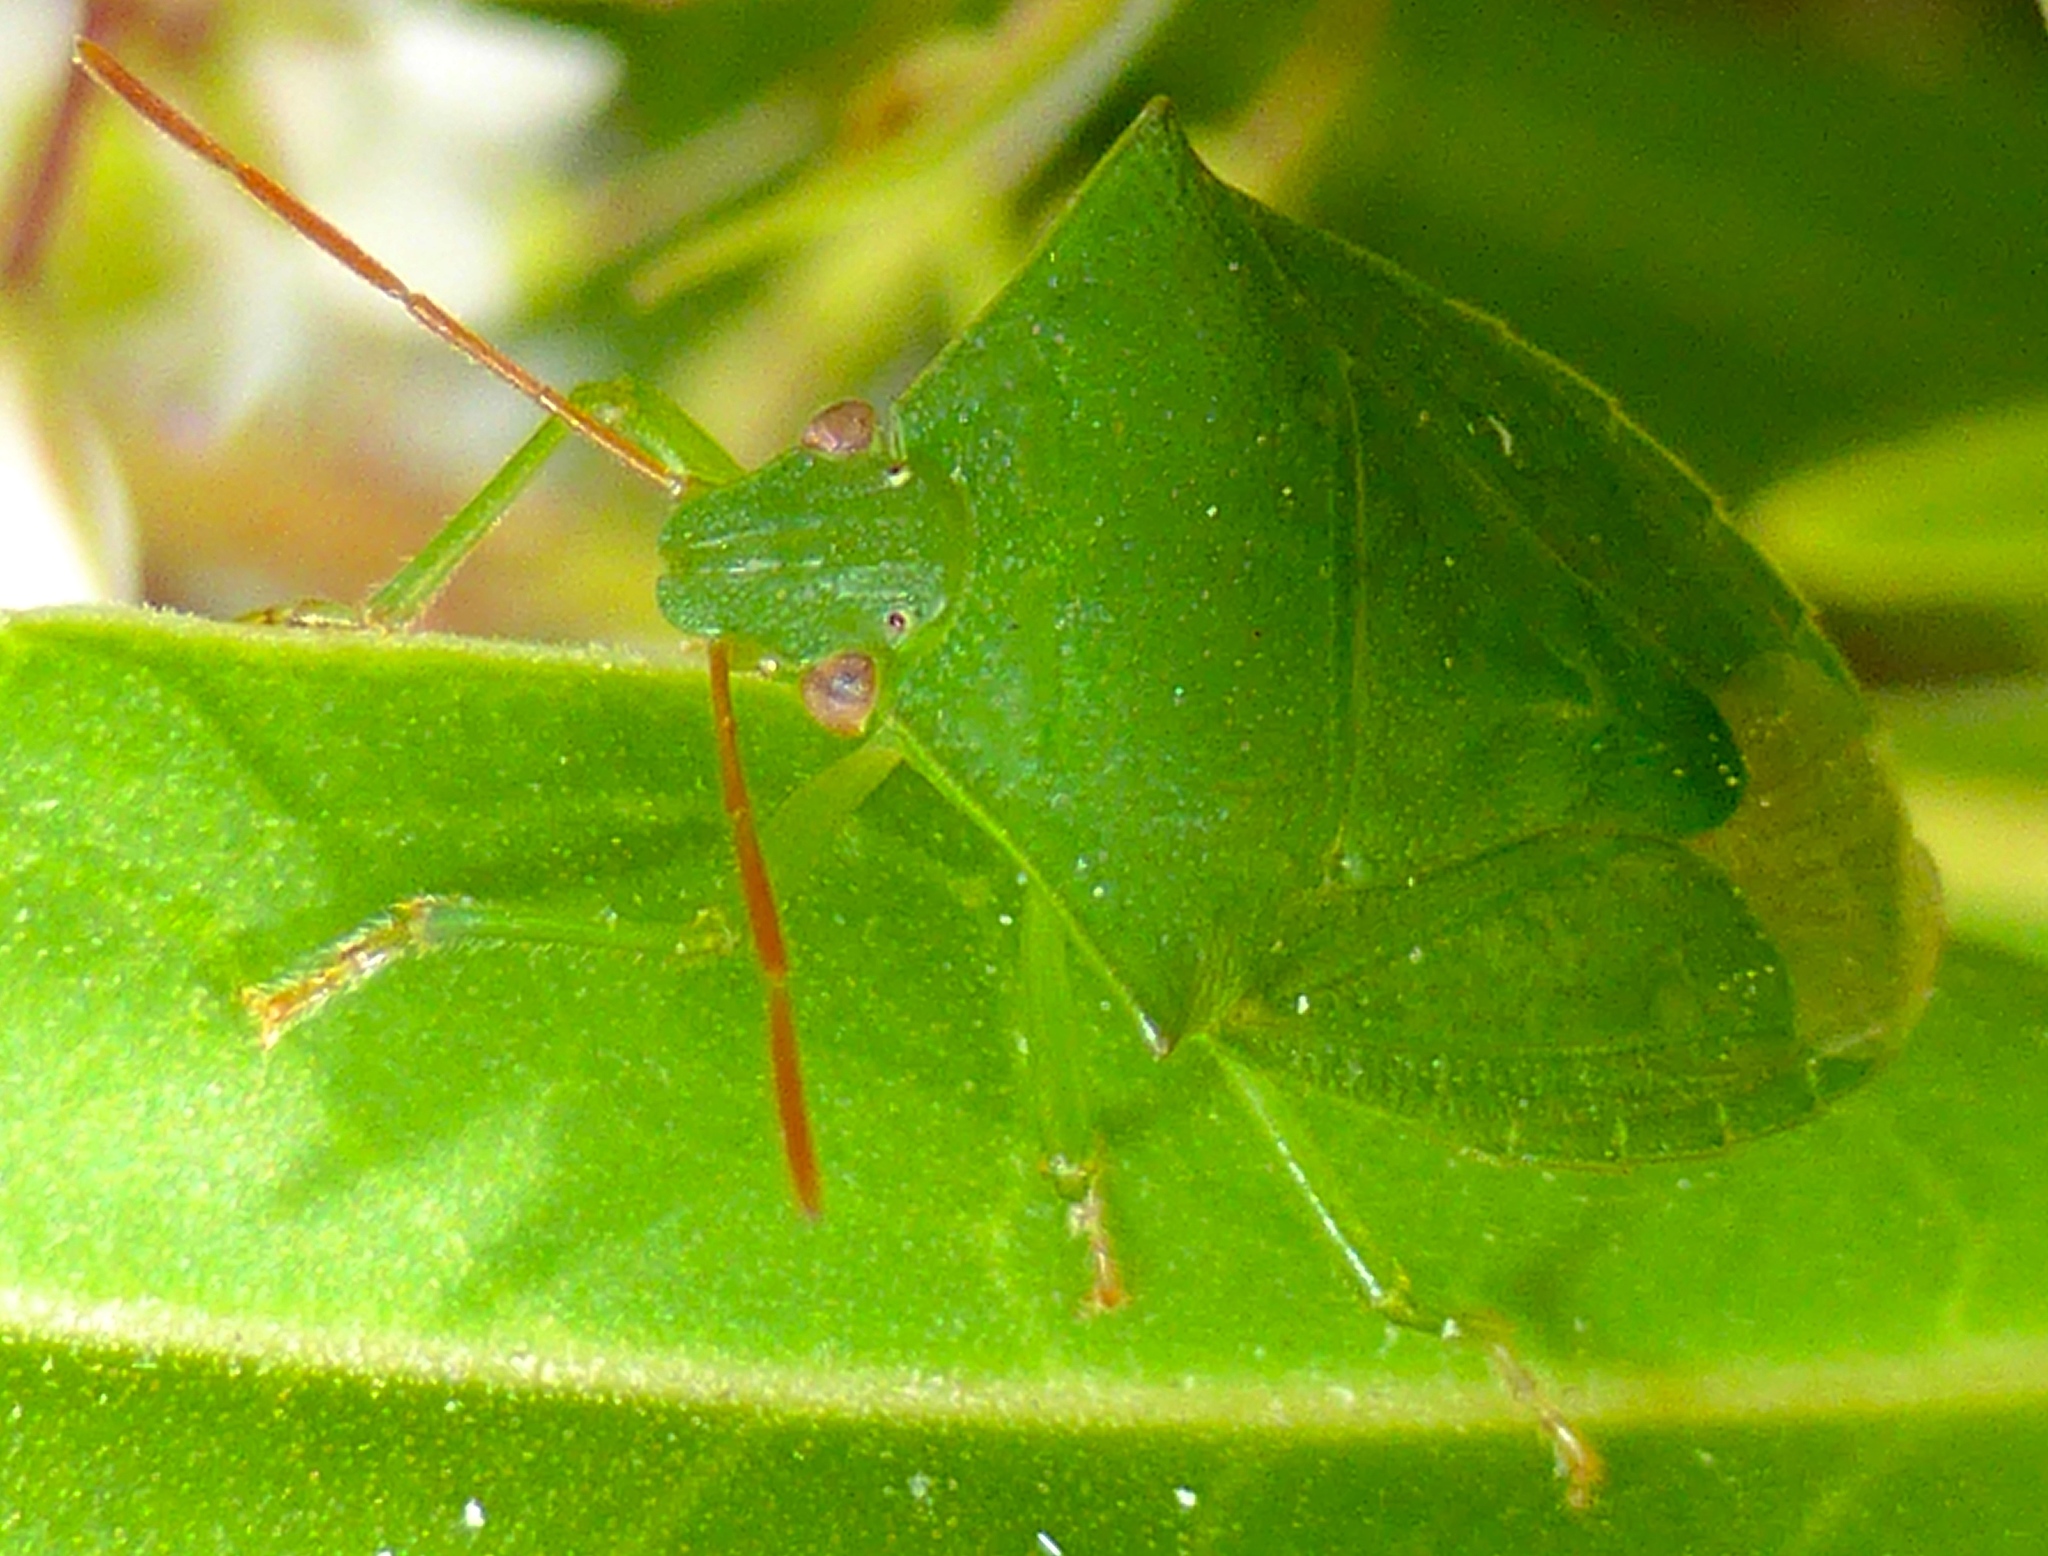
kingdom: Animalia
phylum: Arthropoda
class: Insecta
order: Hemiptera
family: Pentatomidae
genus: Cuspicona
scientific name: Cuspicona simplex
